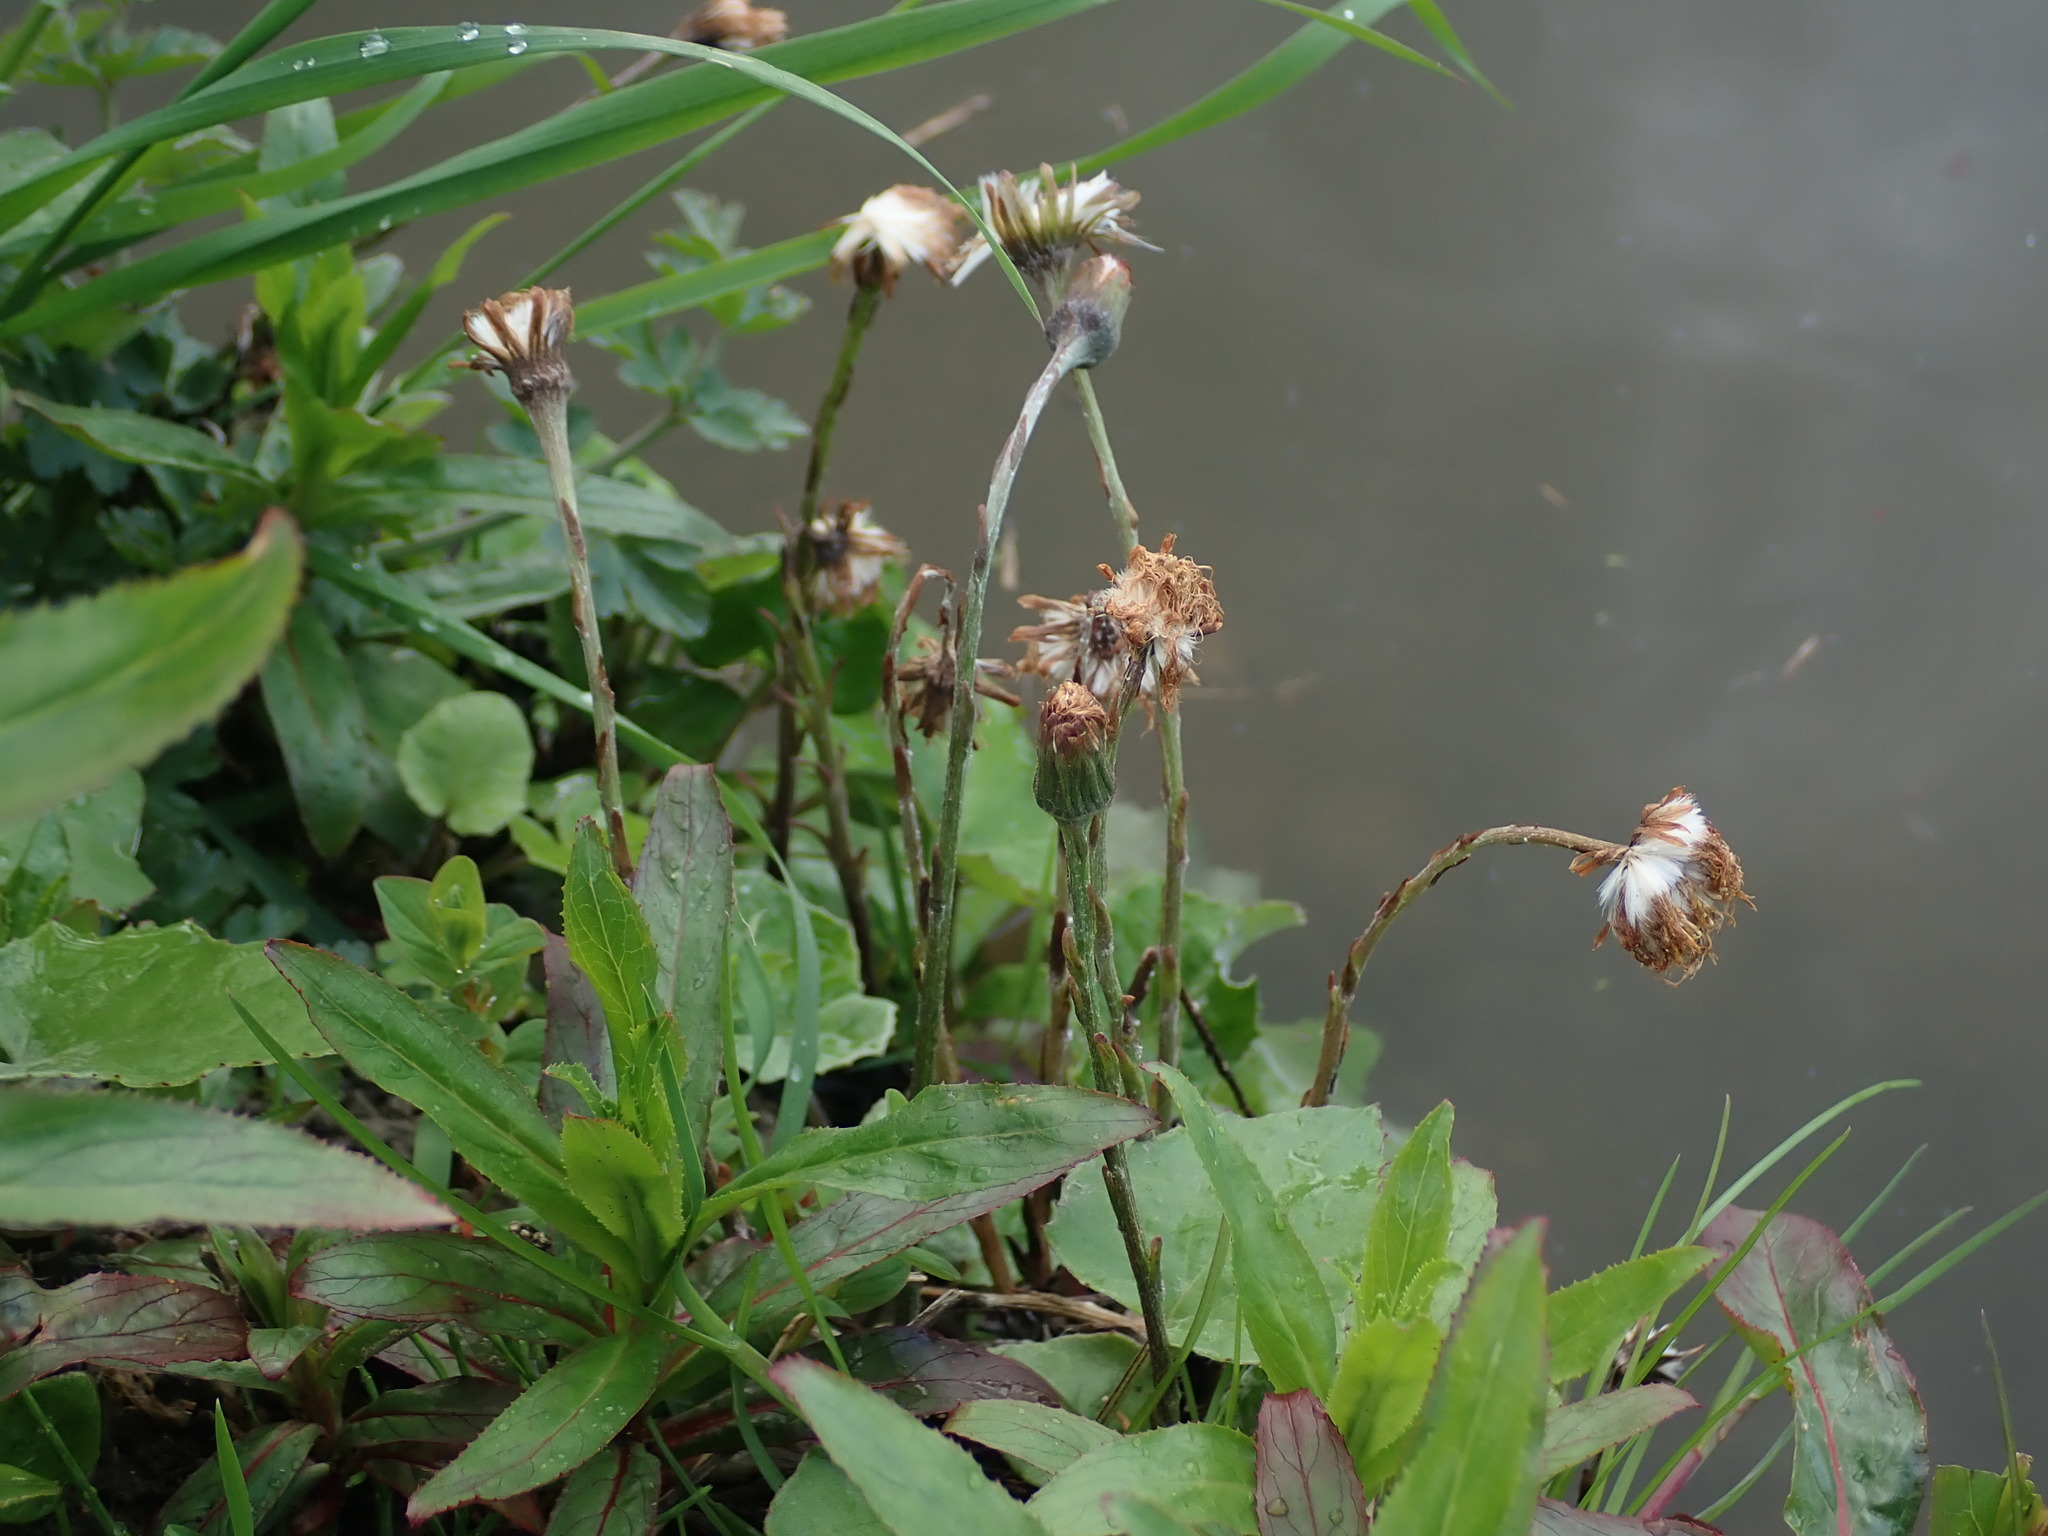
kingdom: Plantae
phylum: Tracheophyta
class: Magnoliopsida
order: Asterales
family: Asteraceae
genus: Tussilago
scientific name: Tussilago farfara
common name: Coltsfoot
